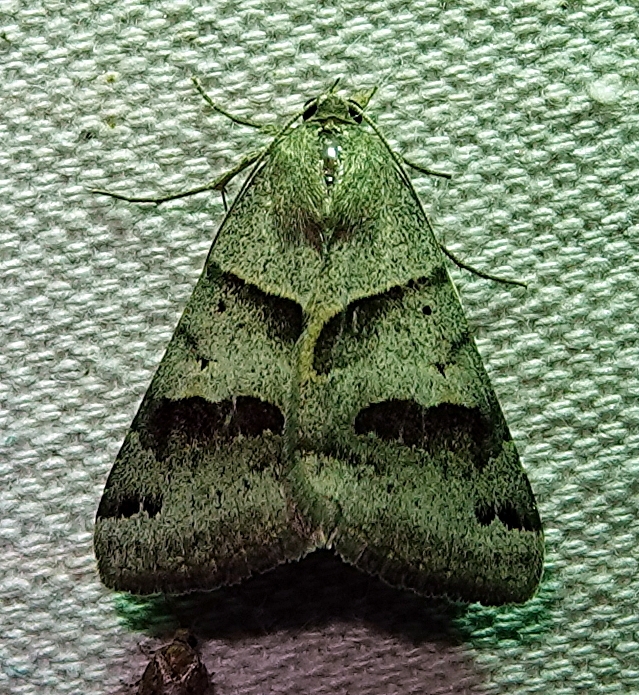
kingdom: Animalia
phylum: Arthropoda
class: Insecta
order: Lepidoptera
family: Erebidae
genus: Caenurgina
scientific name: Caenurgina erechtea
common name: Forage looper moth
